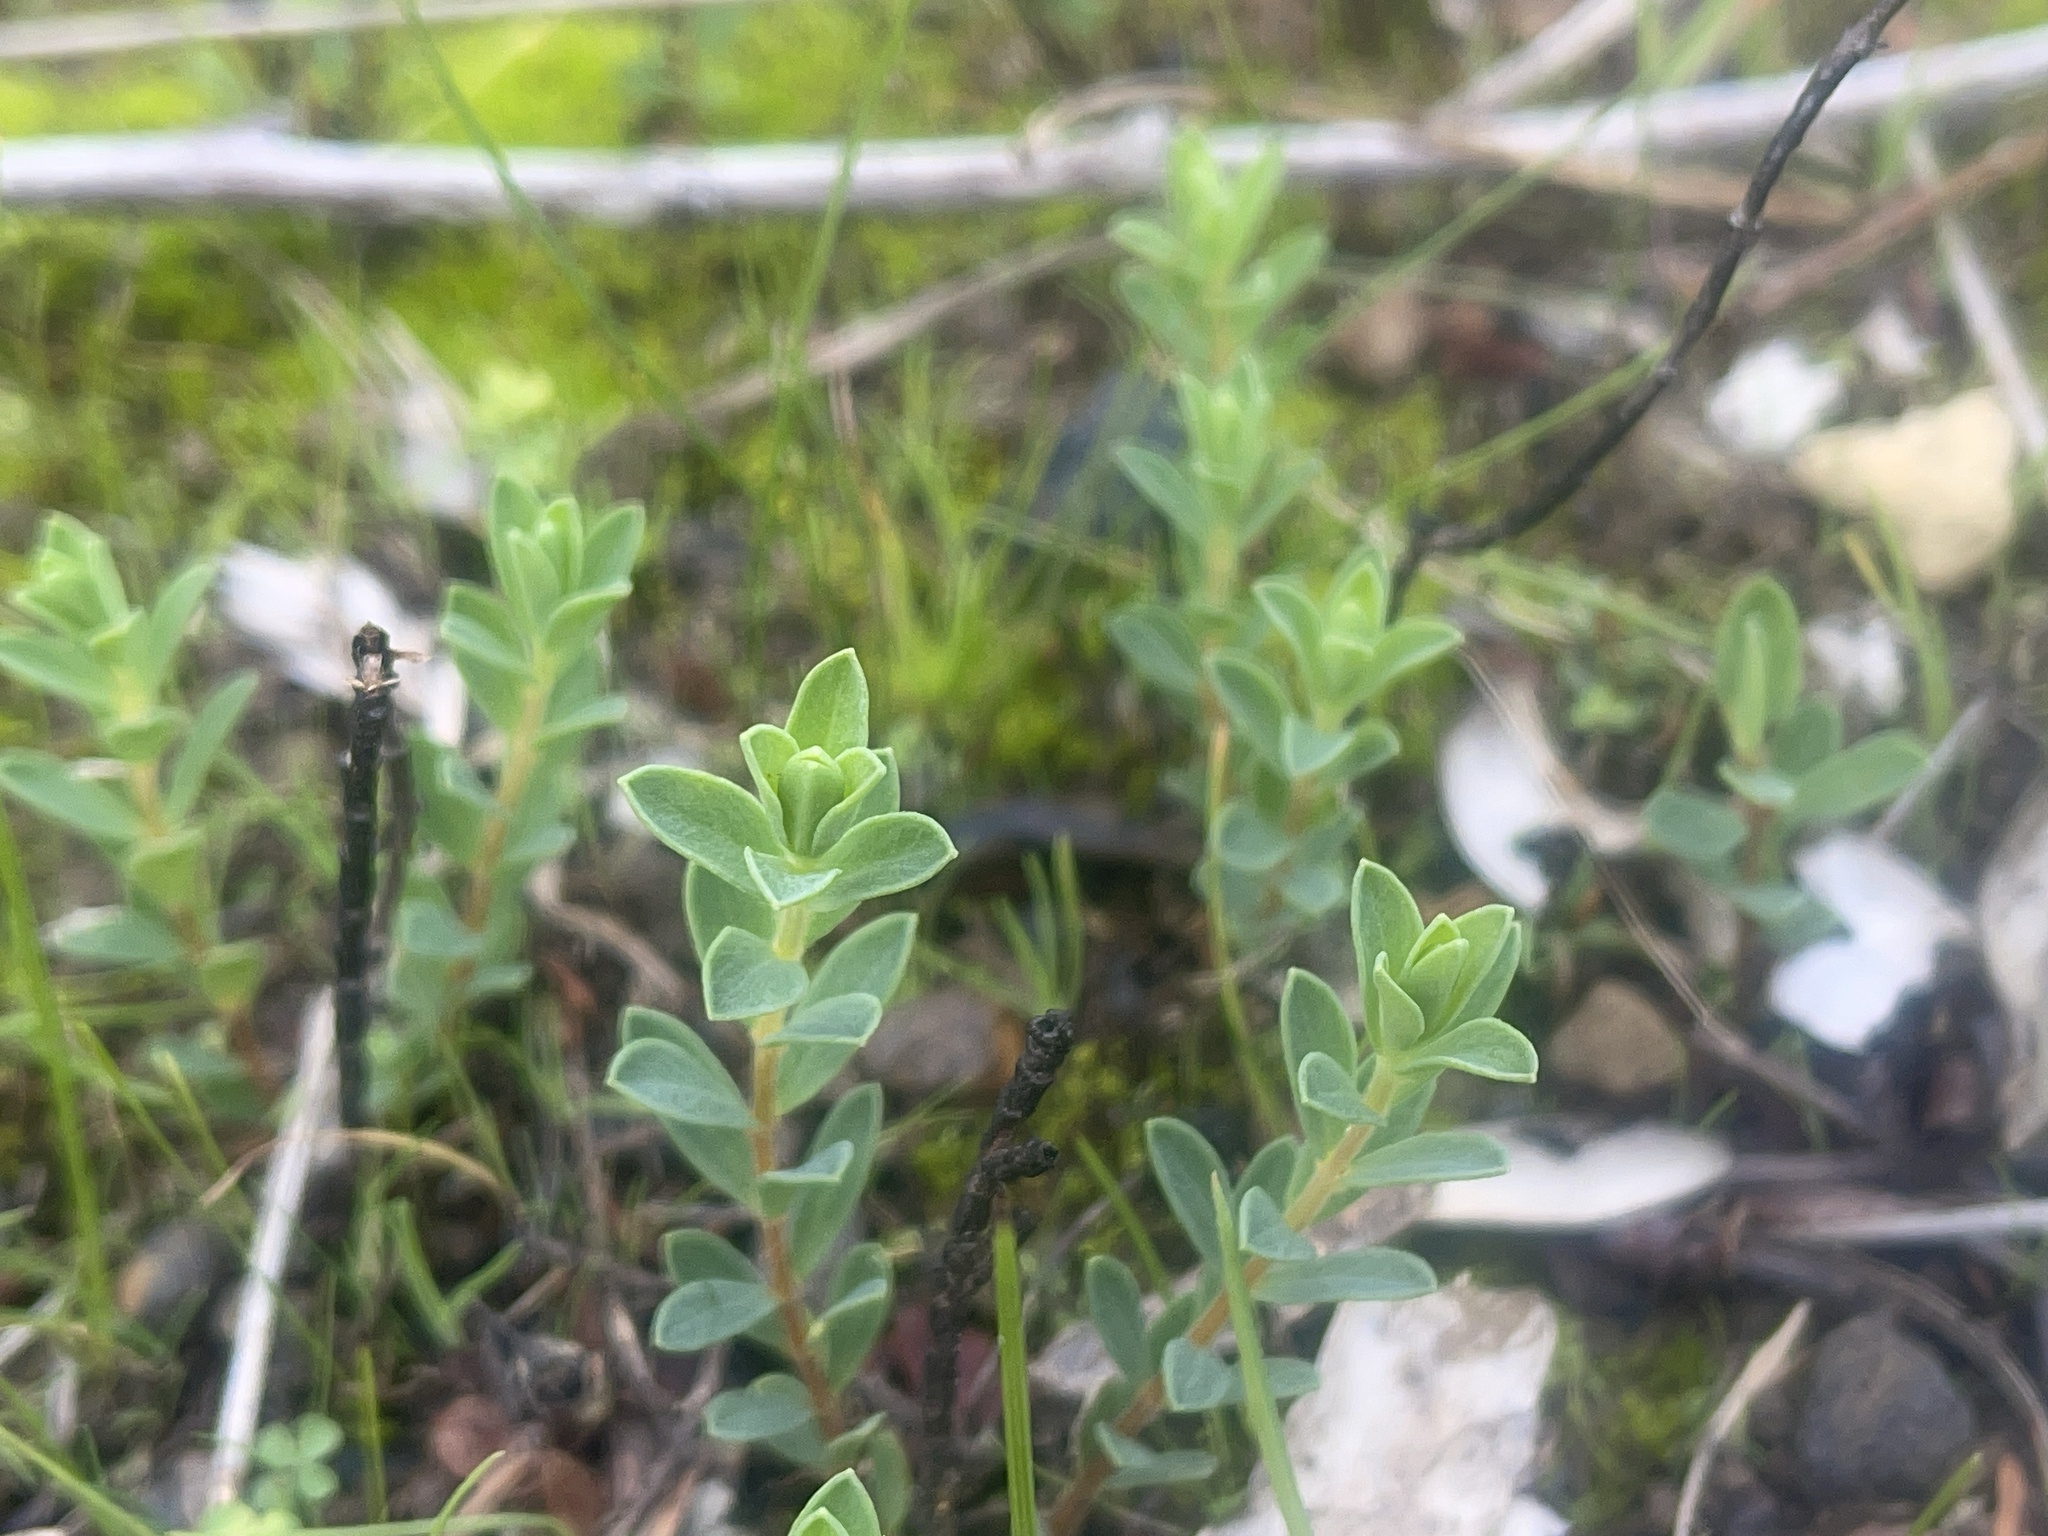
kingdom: Plantae
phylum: Tracheophyta
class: Magnoliopsida
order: Malvales
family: Thymelaeaceae
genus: Pimelea
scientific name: Pimelea humilis
